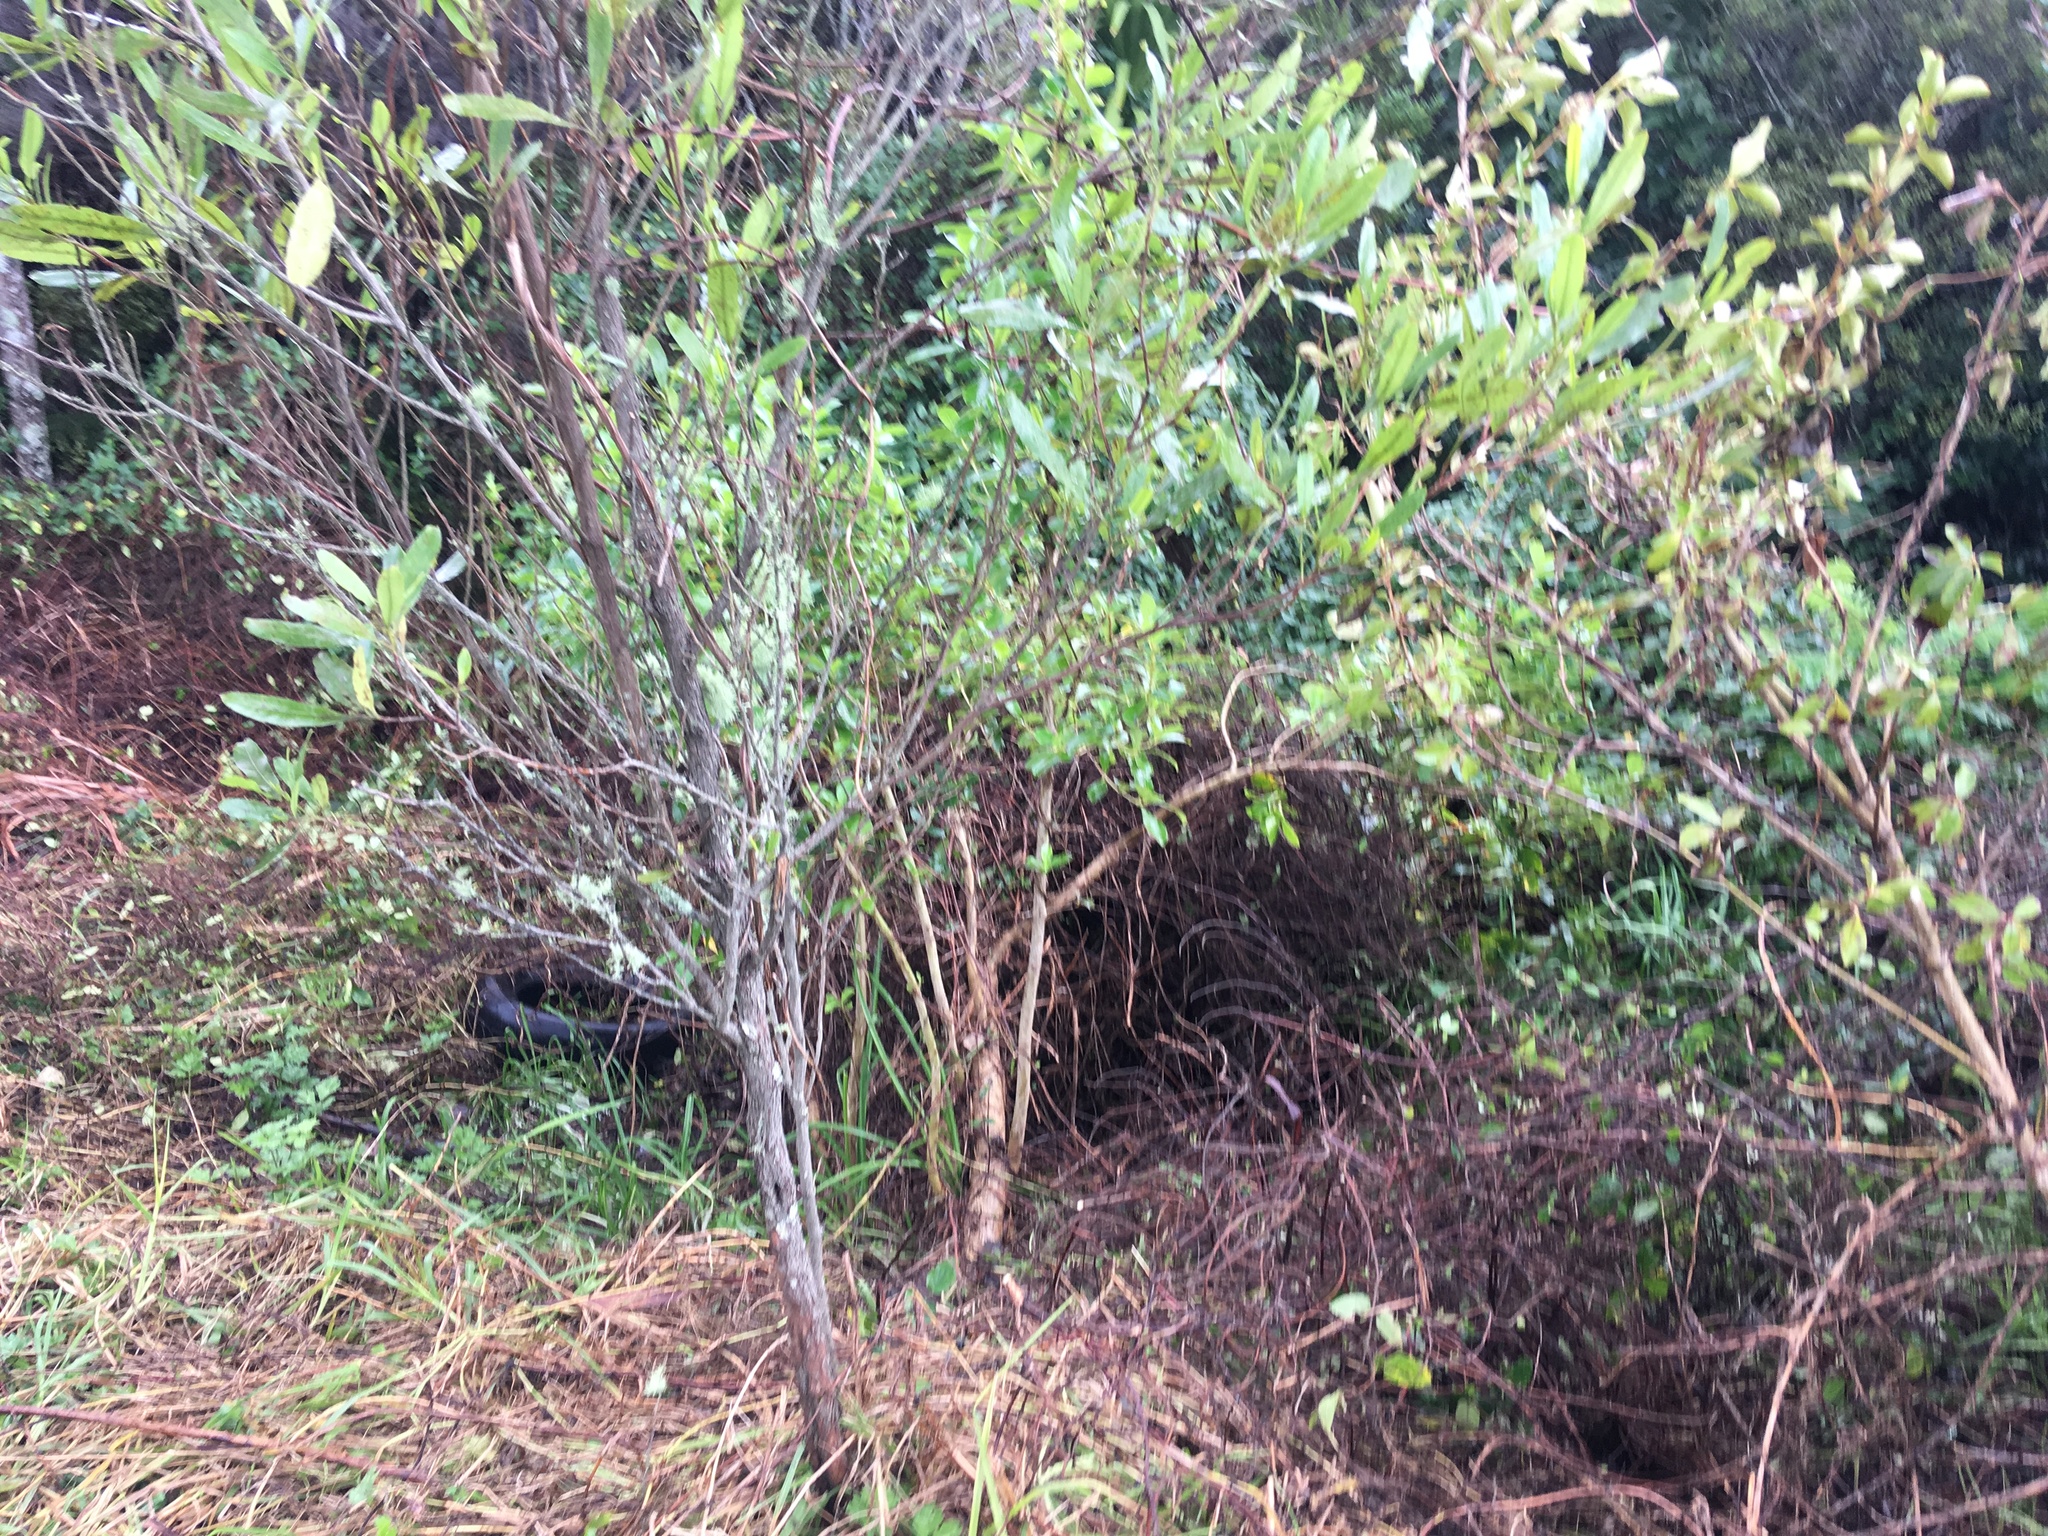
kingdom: Plantae
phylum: Tracheophyta
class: Magnoliopsida
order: Sapindales
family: Sapindaceae
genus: Dodonaea
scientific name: Dodonaea viscosa
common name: Hopbush
